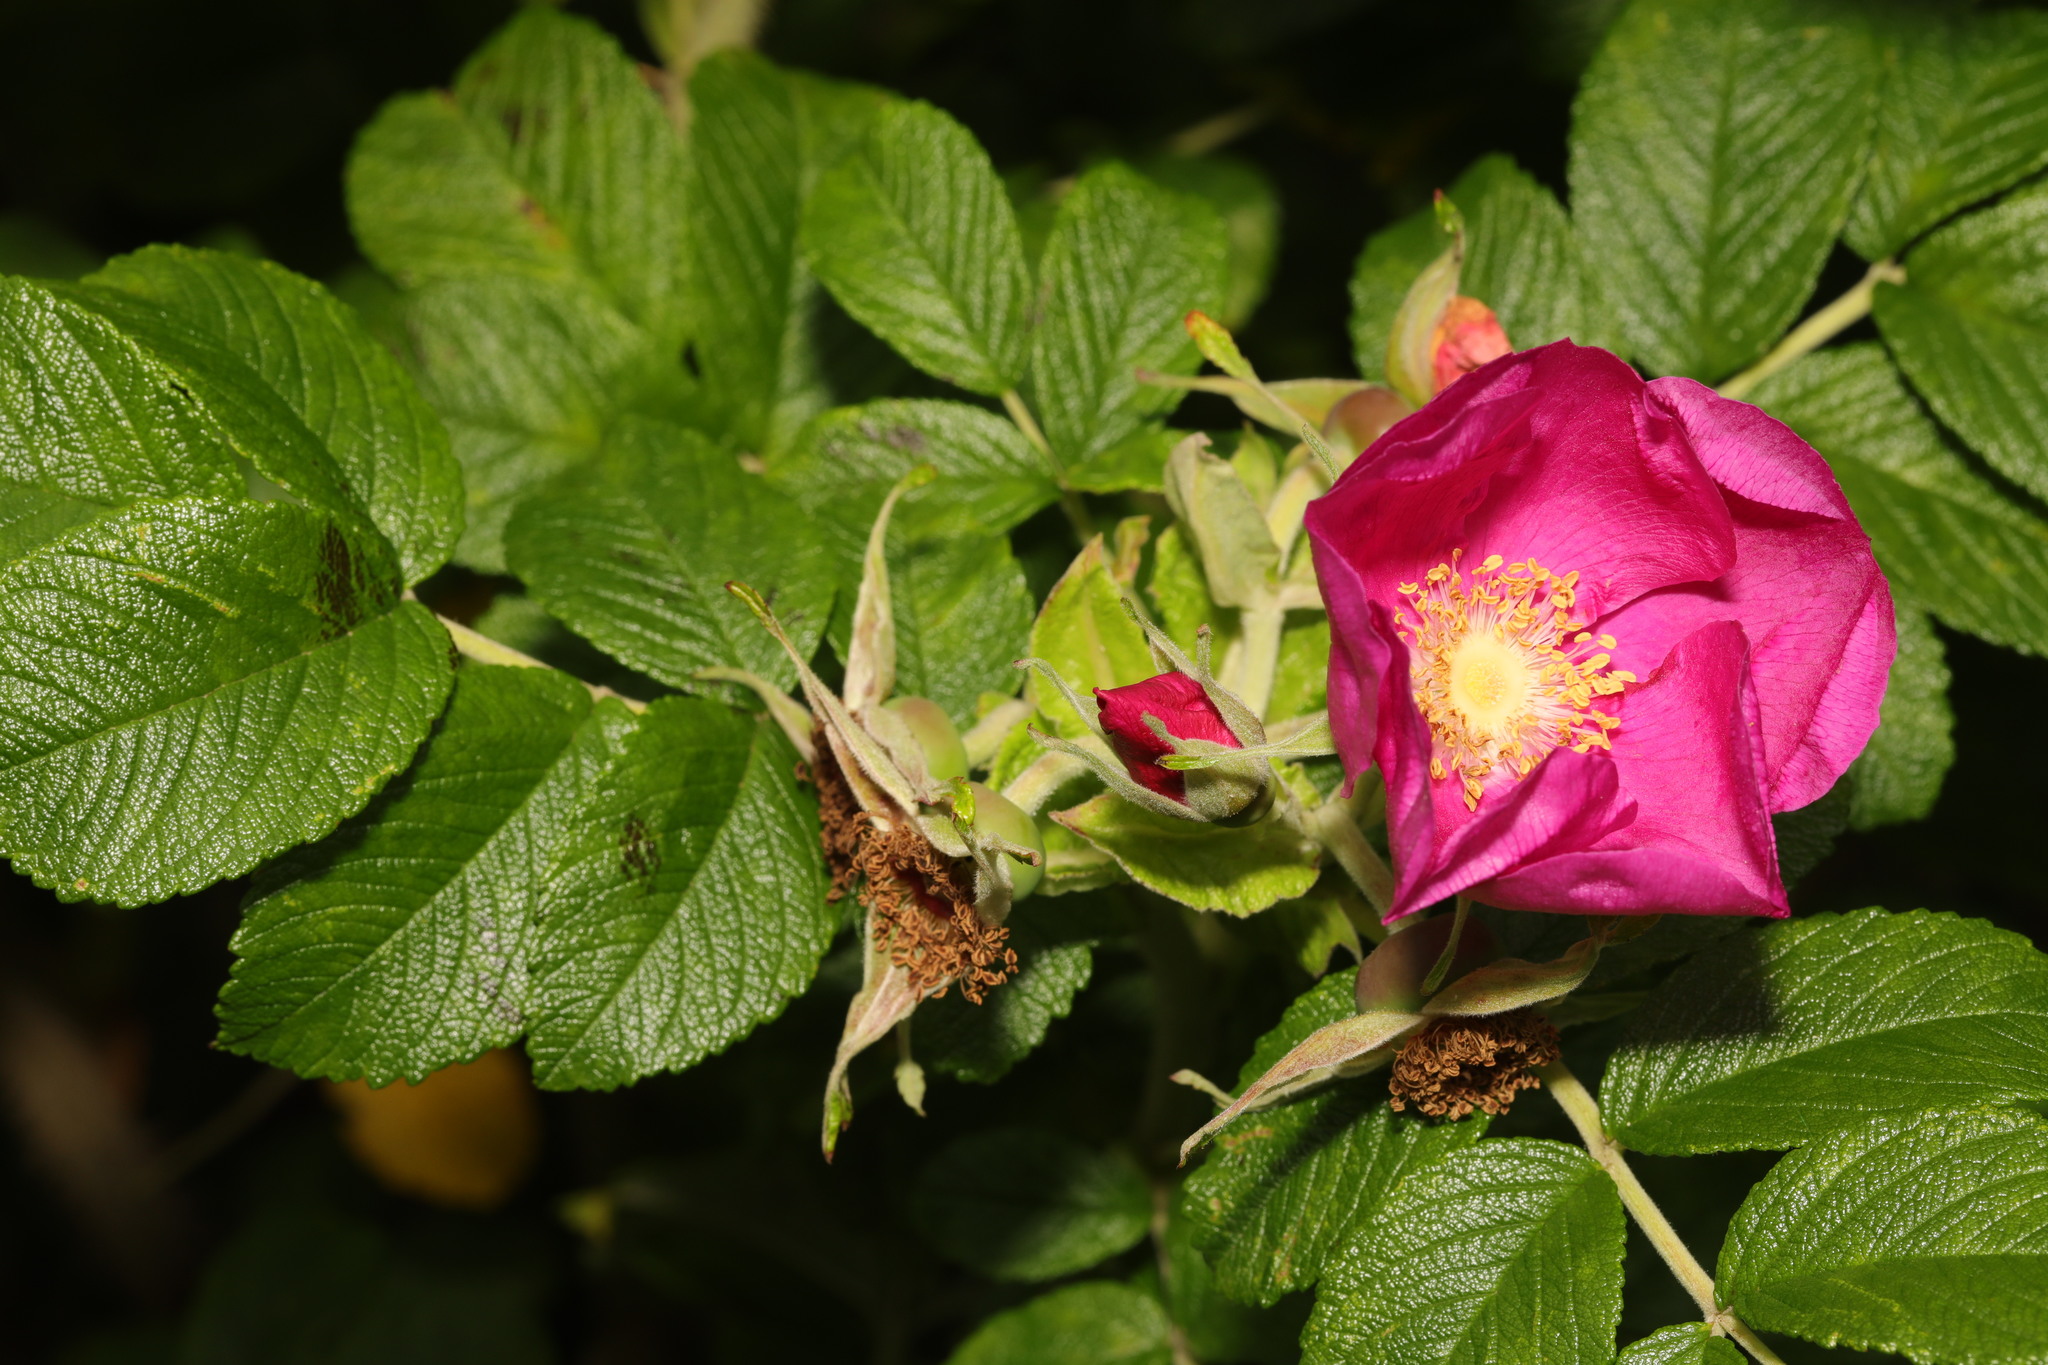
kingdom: Plantae
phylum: Tracheophyta
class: Magnoliopsida
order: Rosales
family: Rosaceae
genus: Rosa
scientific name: Rosa rugosa
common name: Japanese rose
